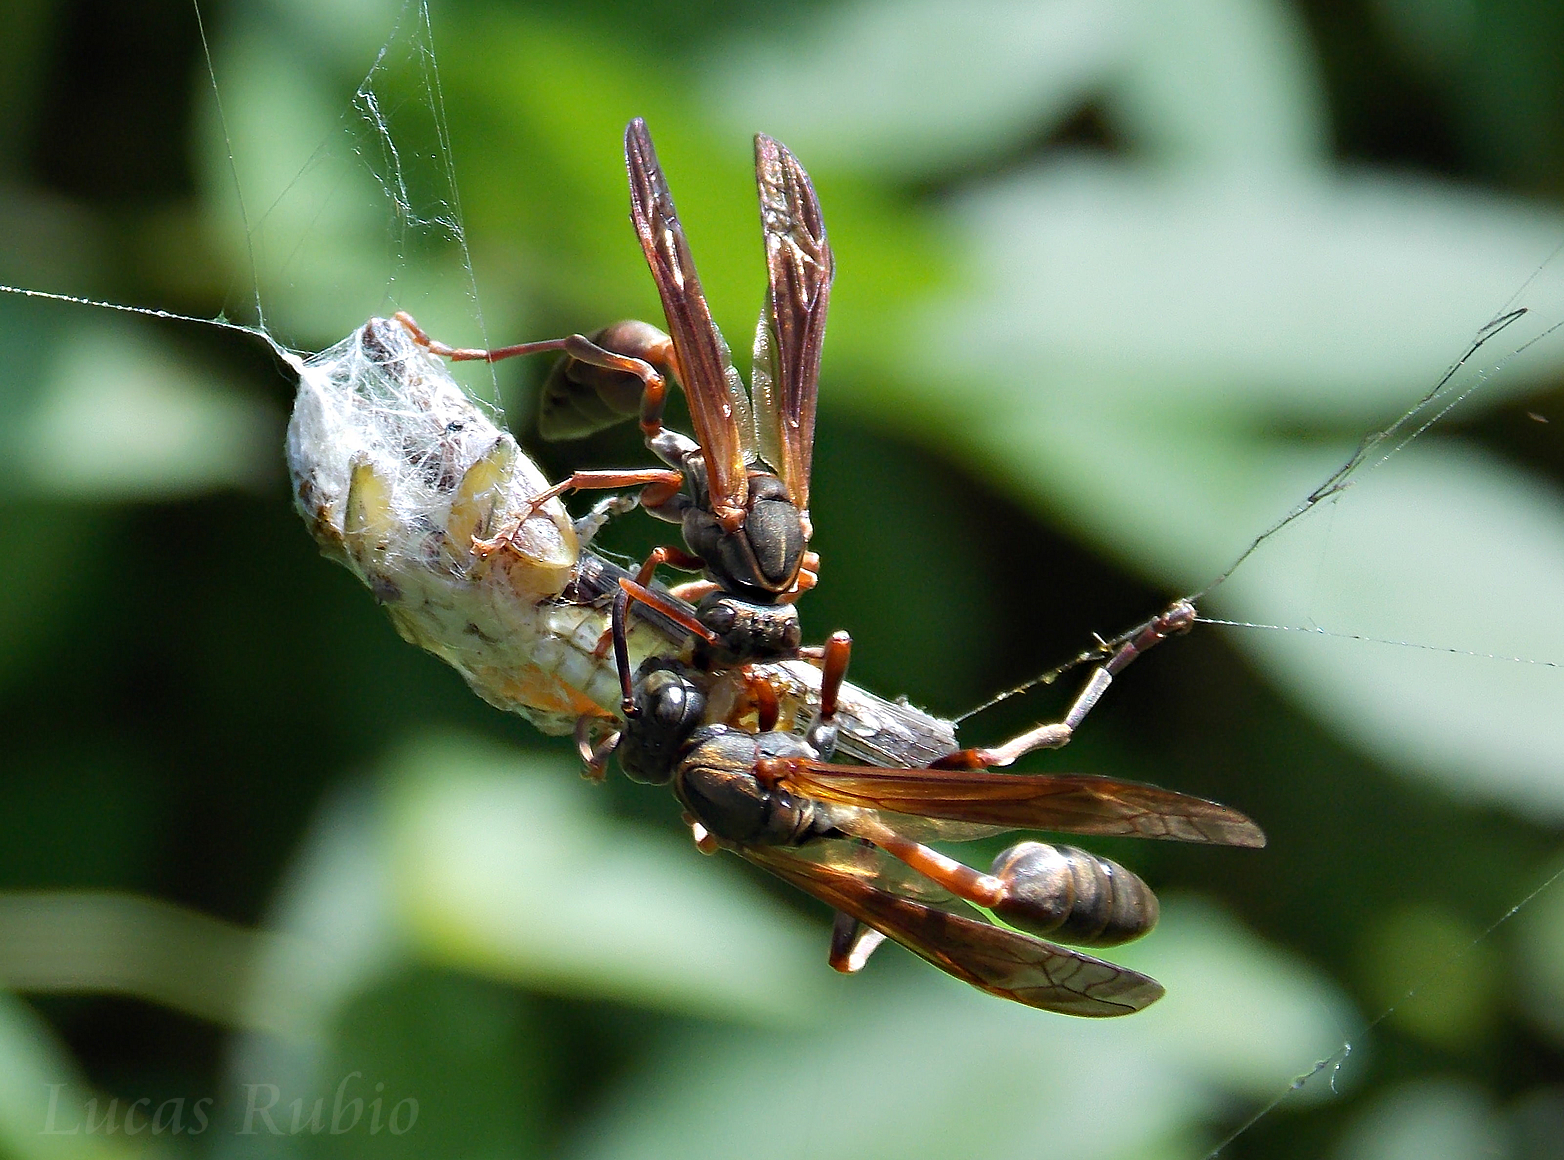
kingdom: Animalia
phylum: Arthropoda
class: Insecta
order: Hymenoptera
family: Vespidae
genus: Mischocyttarus
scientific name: Mischocyttarus drewseni
